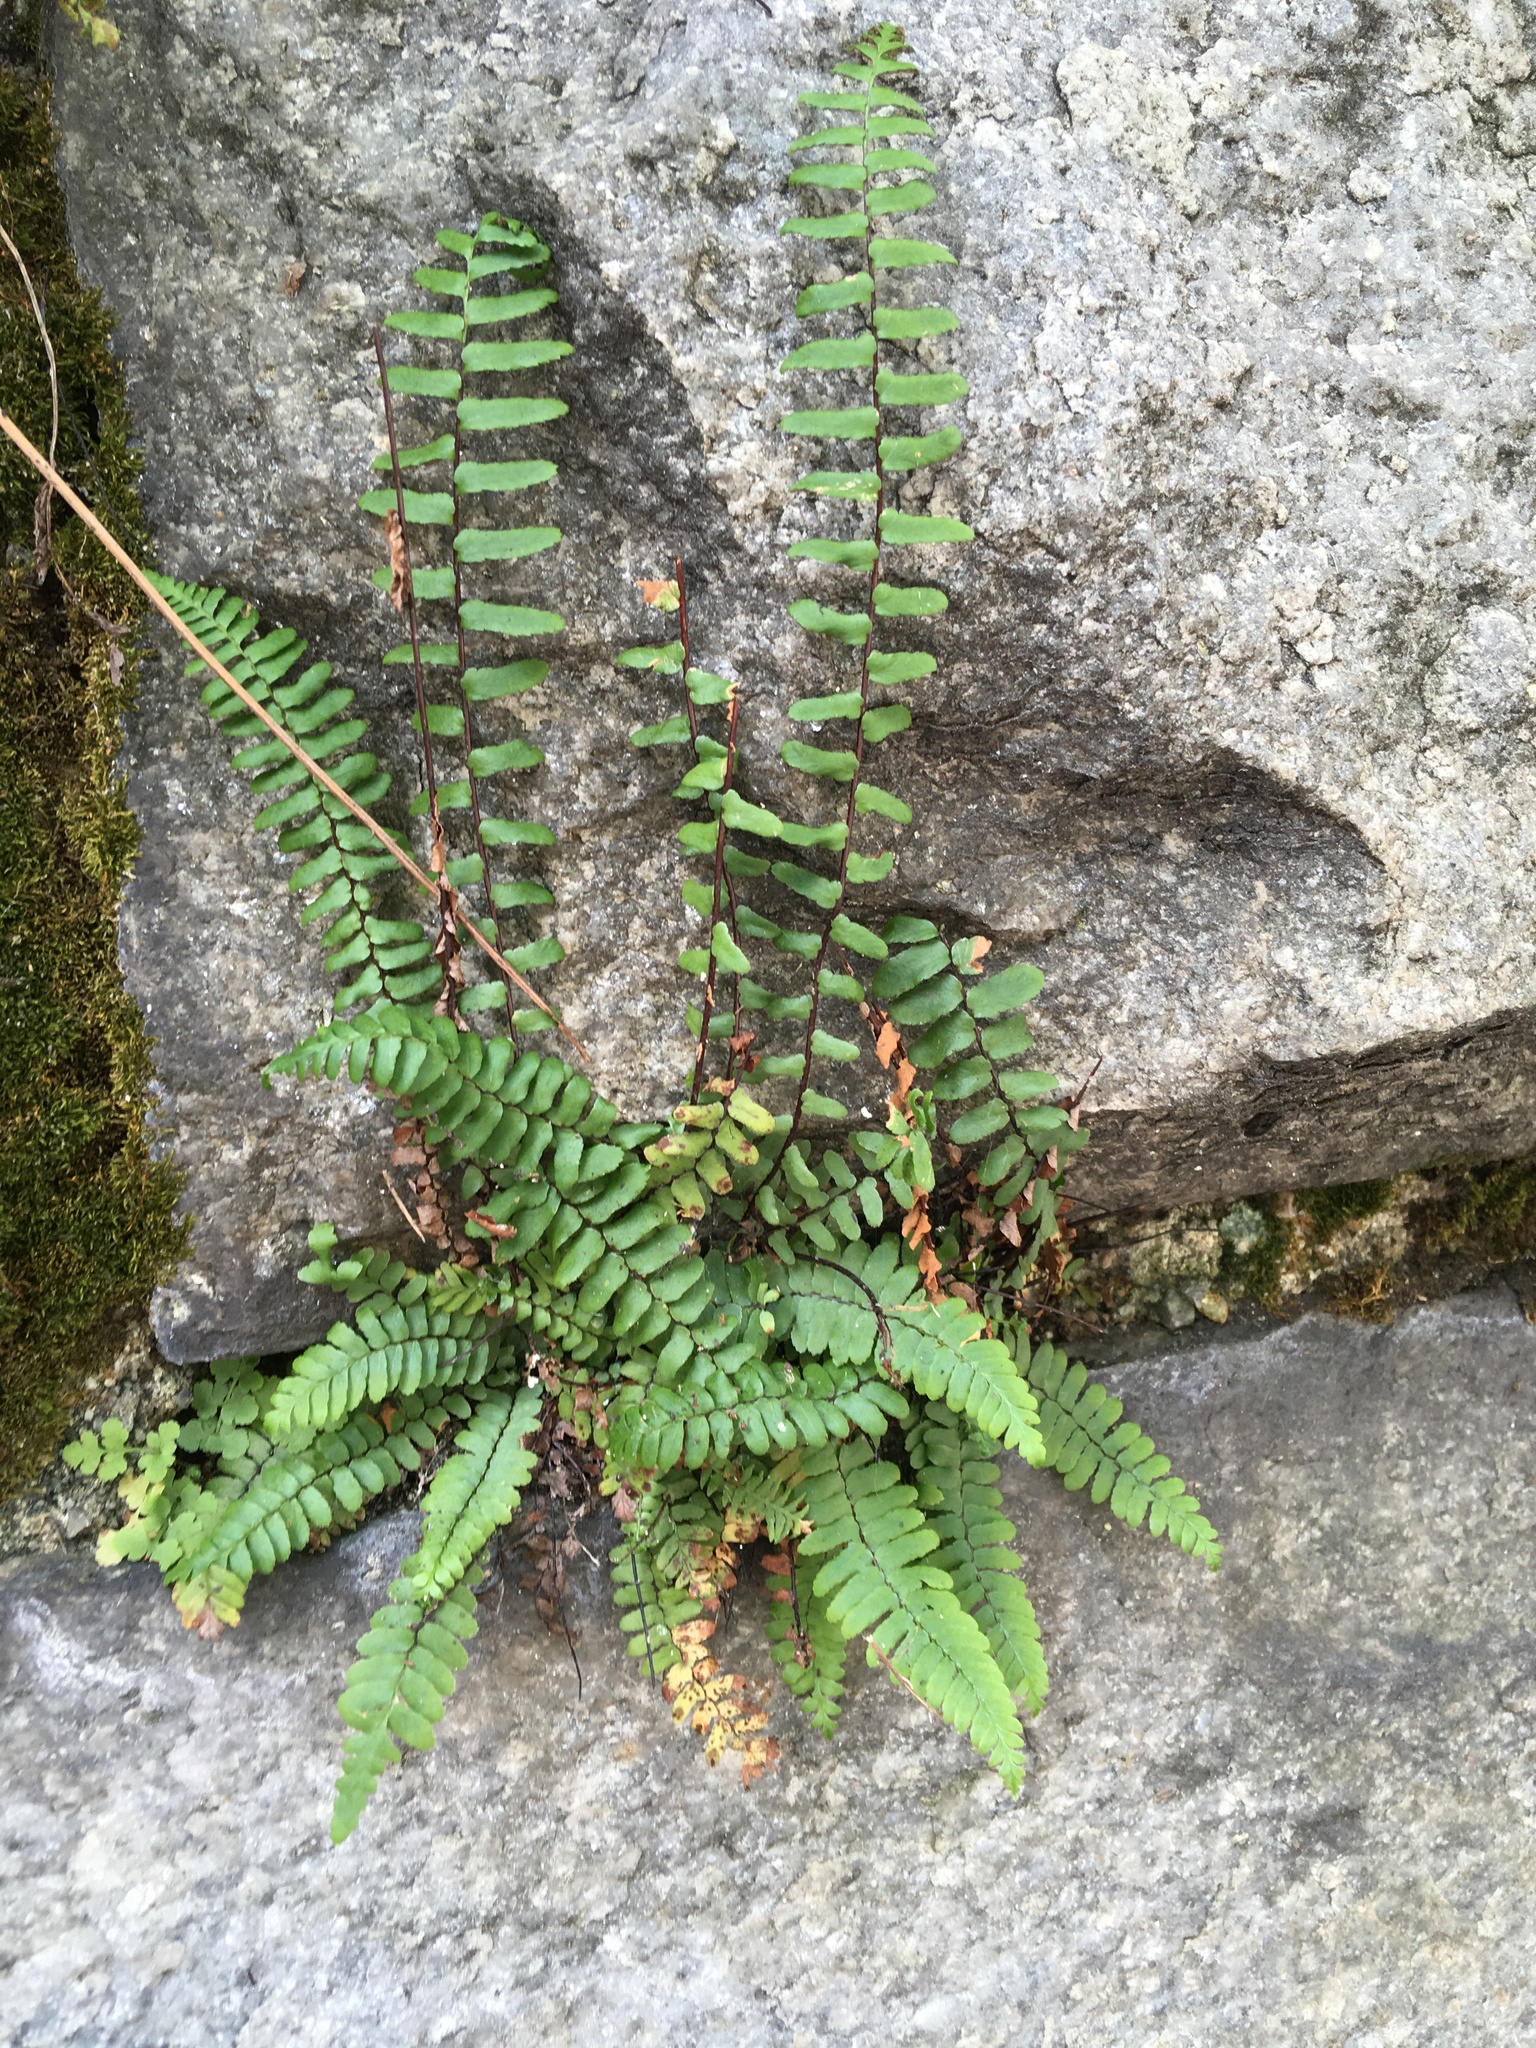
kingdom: Plantae
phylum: Tracheophyta
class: Polypodiopsida
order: Polypodiales
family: Aspleniaceae
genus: Asplenium
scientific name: Asplenium platyneuron
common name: Ebony spleenwort
